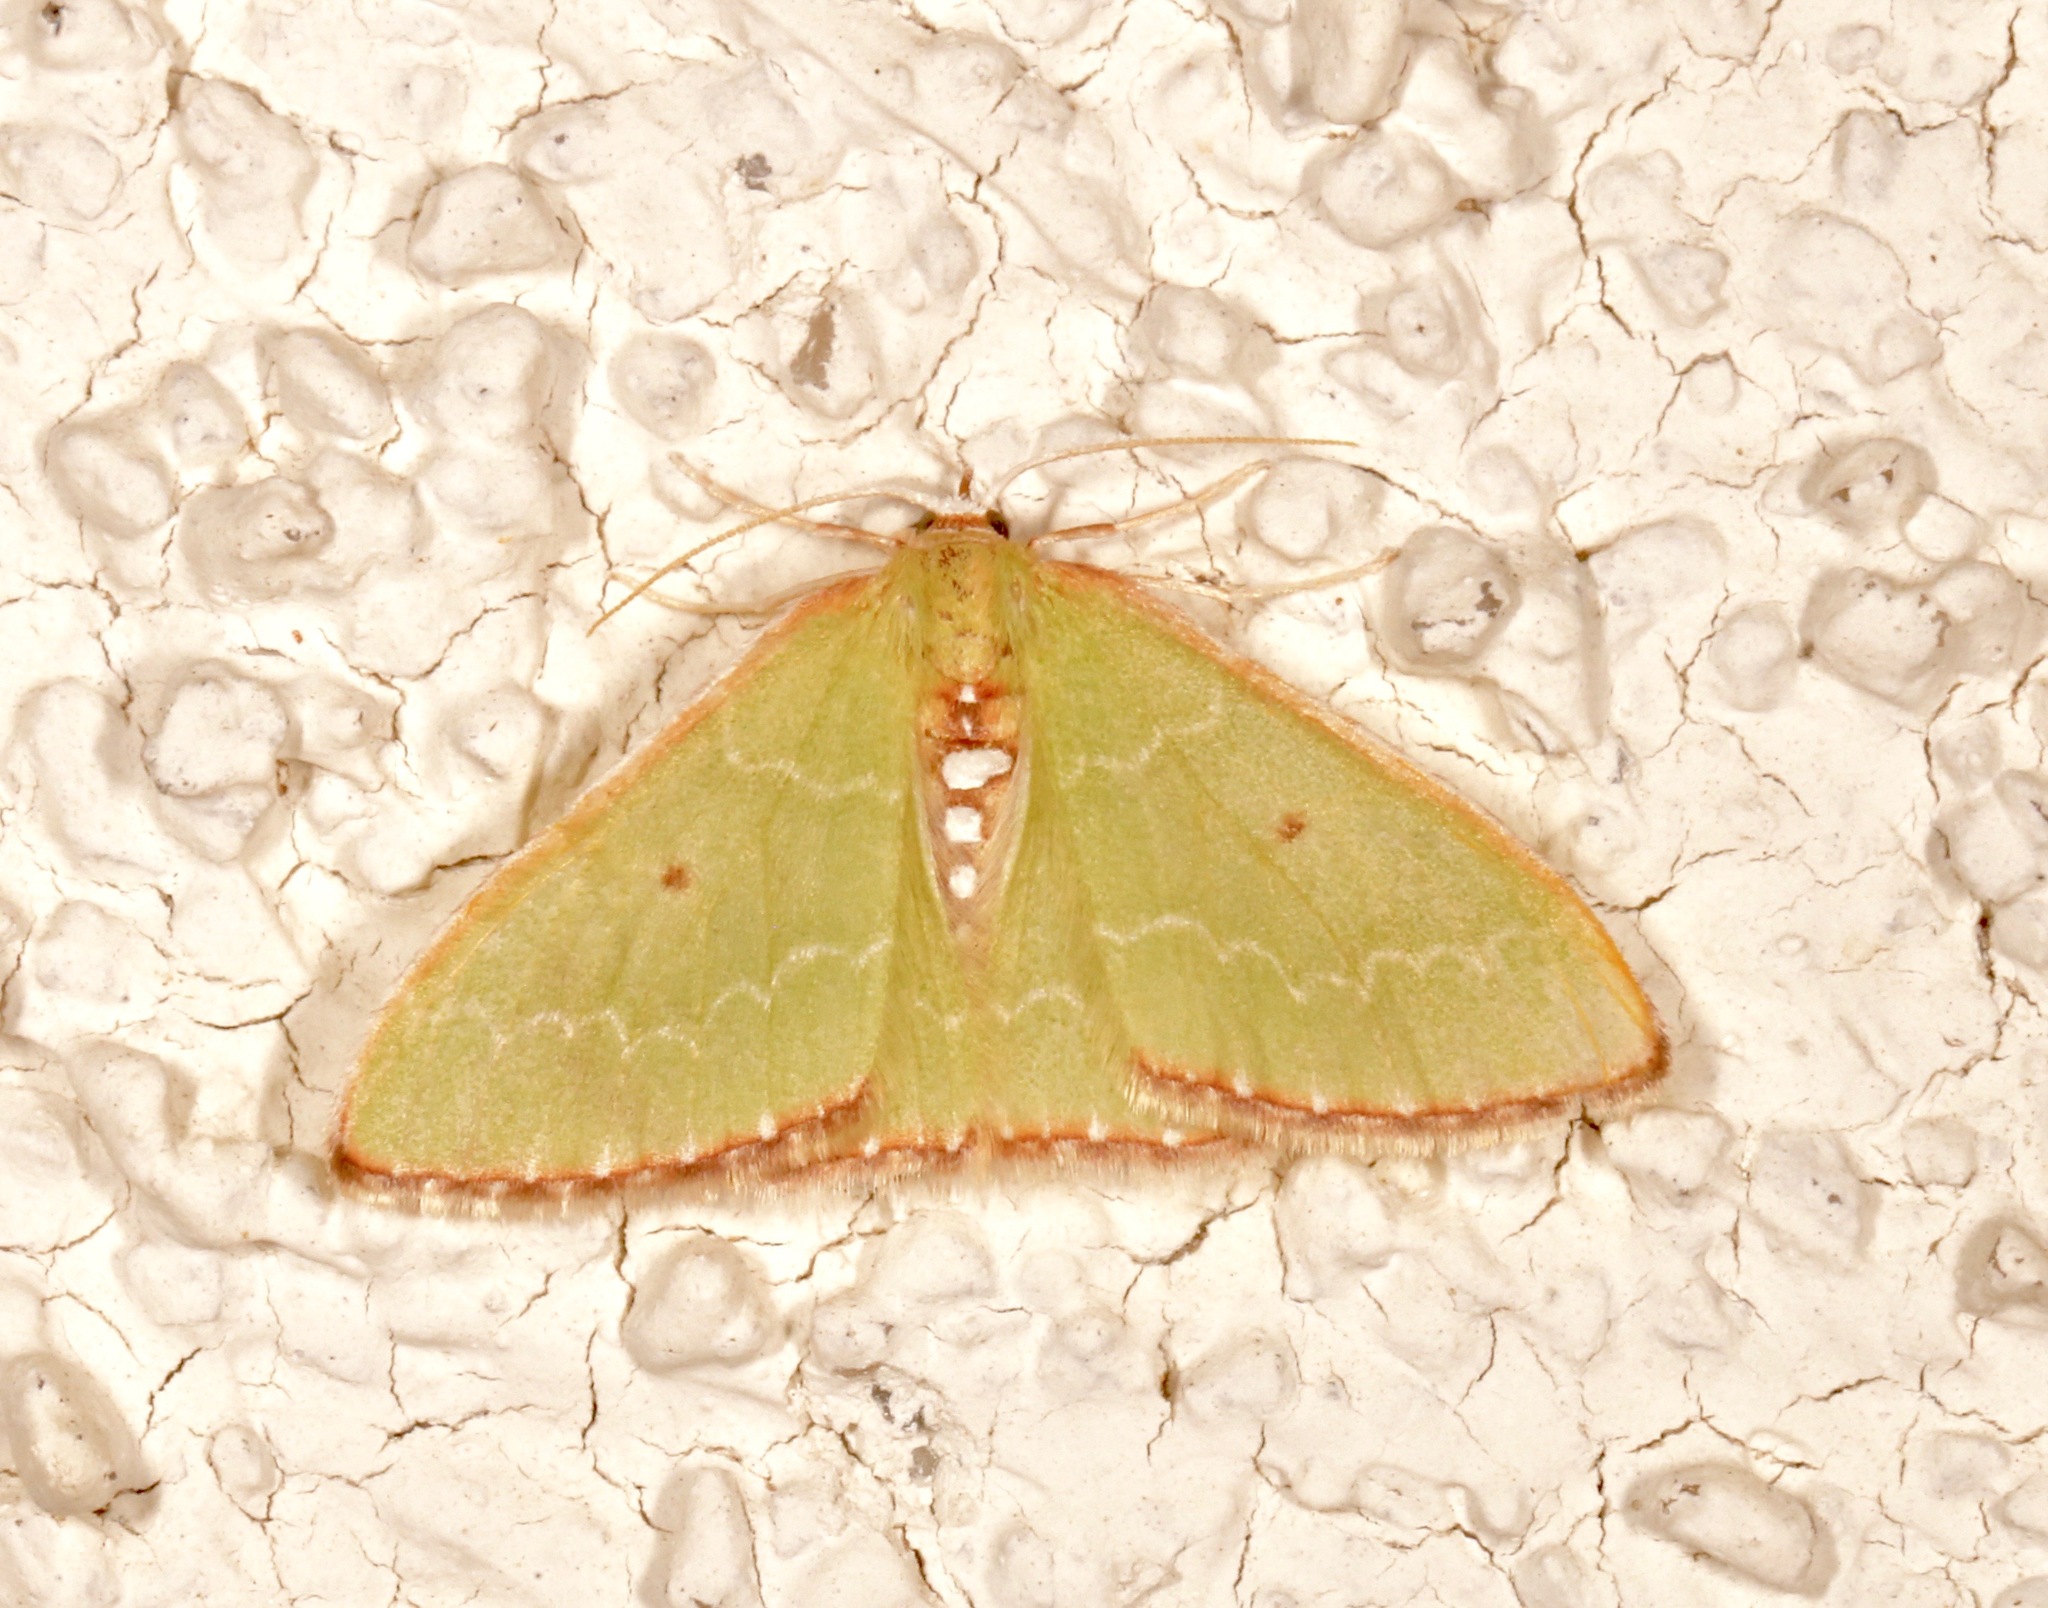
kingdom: Animalia
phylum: Arthropoda
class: Insecta
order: Lepidoptera
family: Geometridae
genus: Synchlora
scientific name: Synchlora noel
